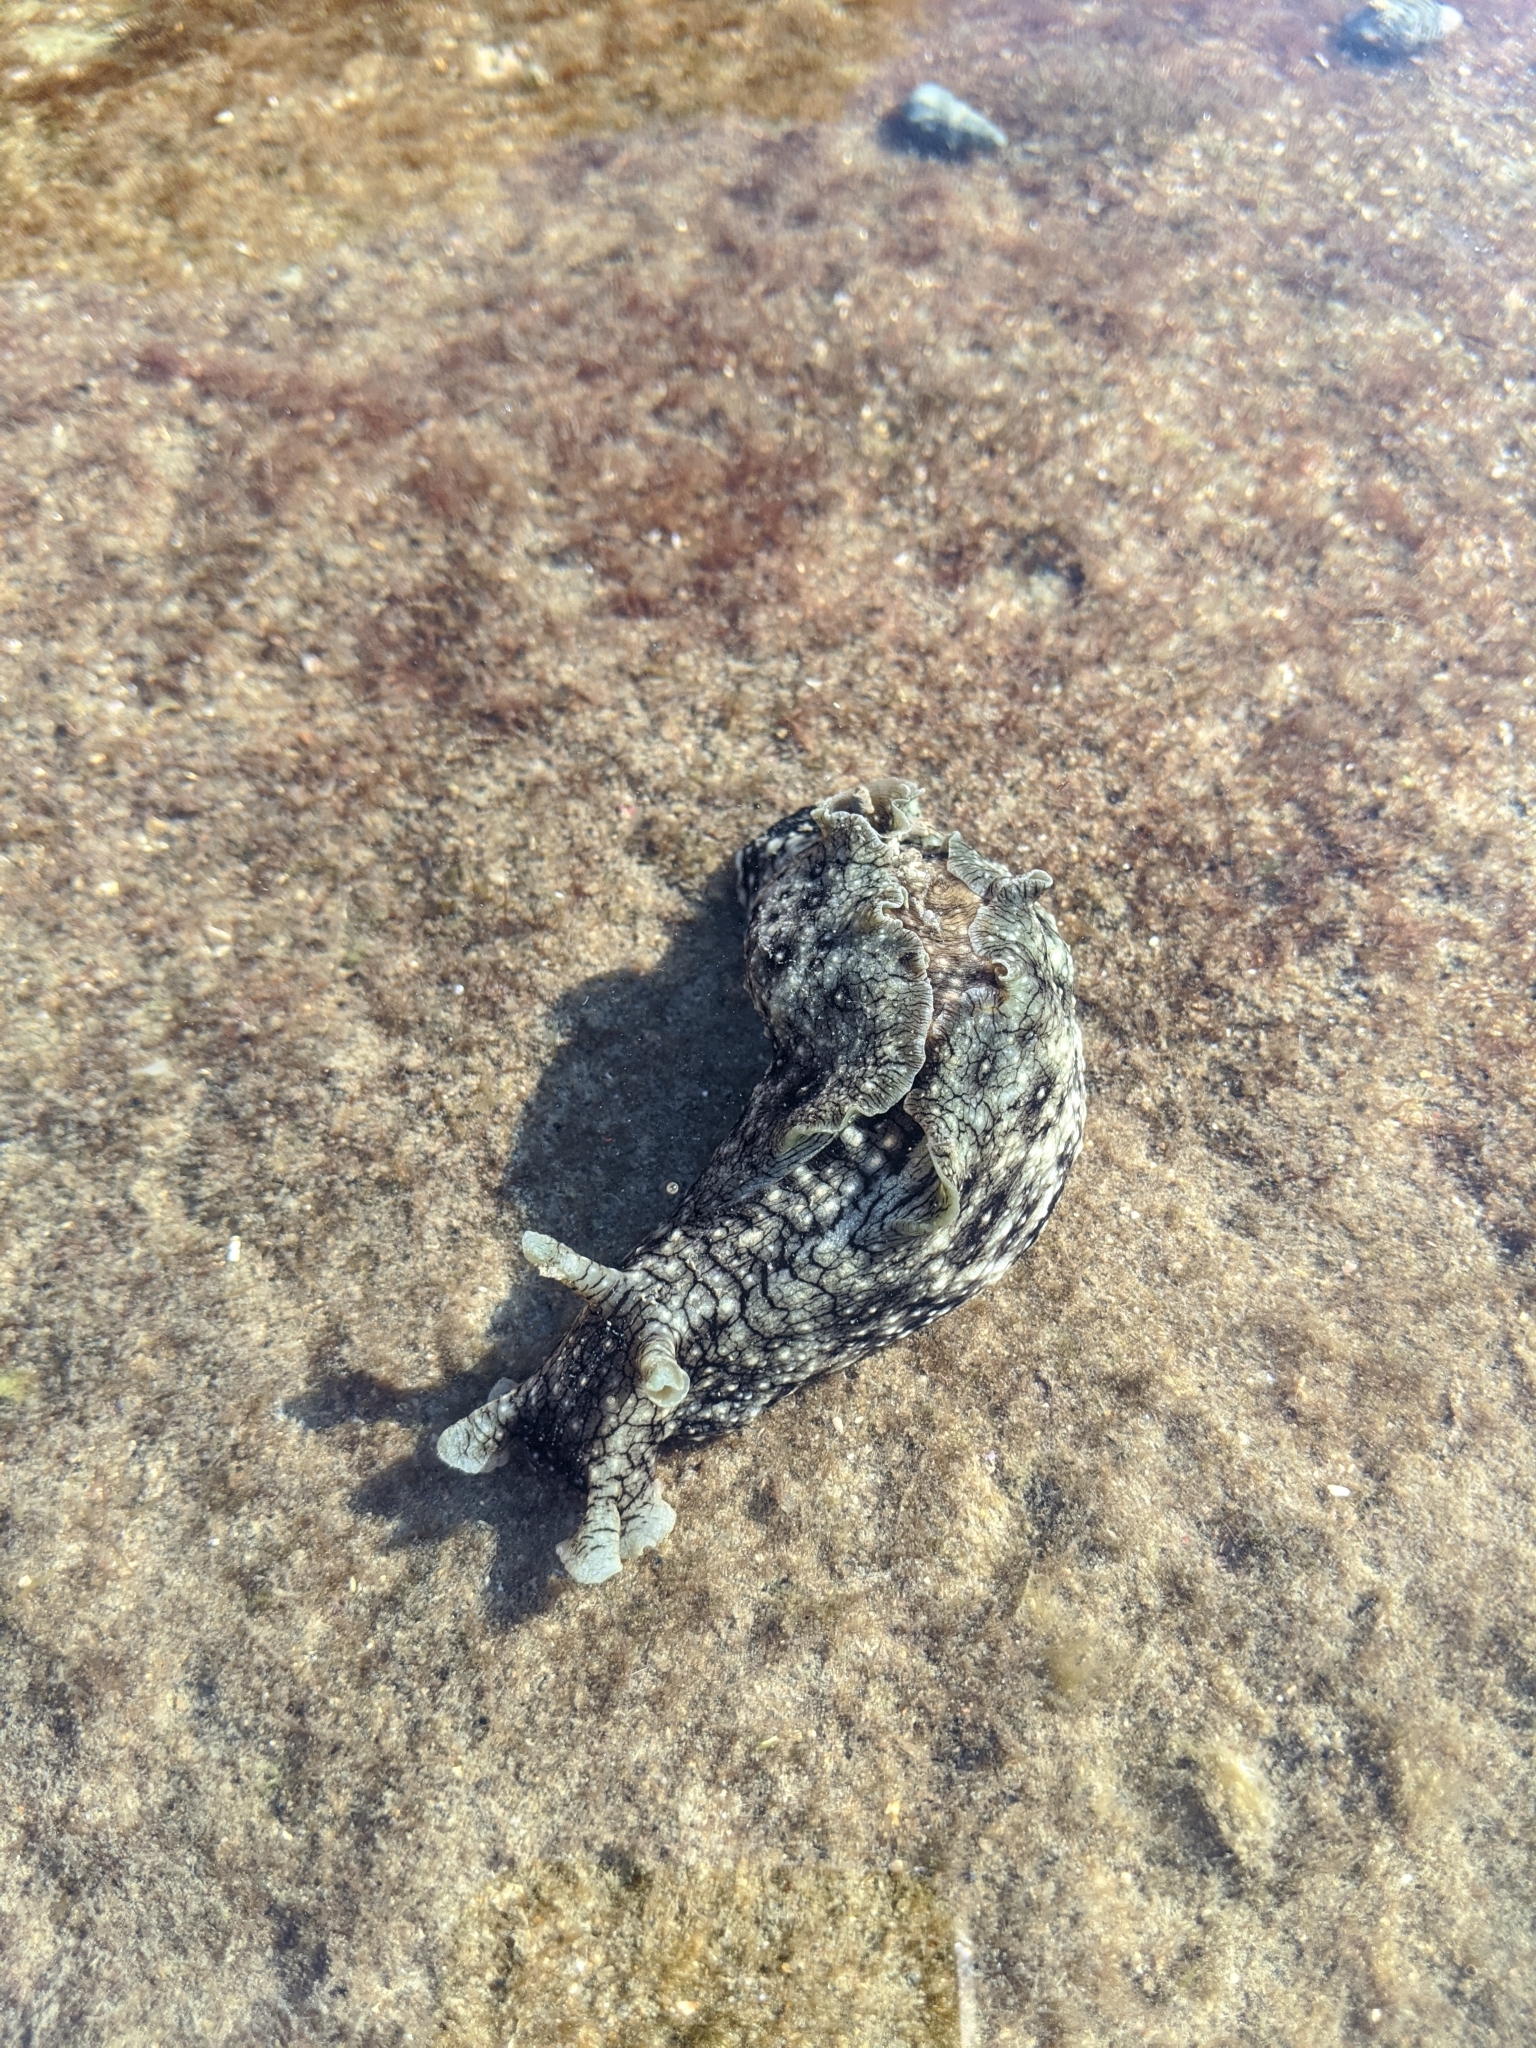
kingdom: Animalia
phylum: Mollusca
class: Gastropoda
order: Aplysiida
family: Aplysiidae
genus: Aplysia
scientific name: Aplysia argus
